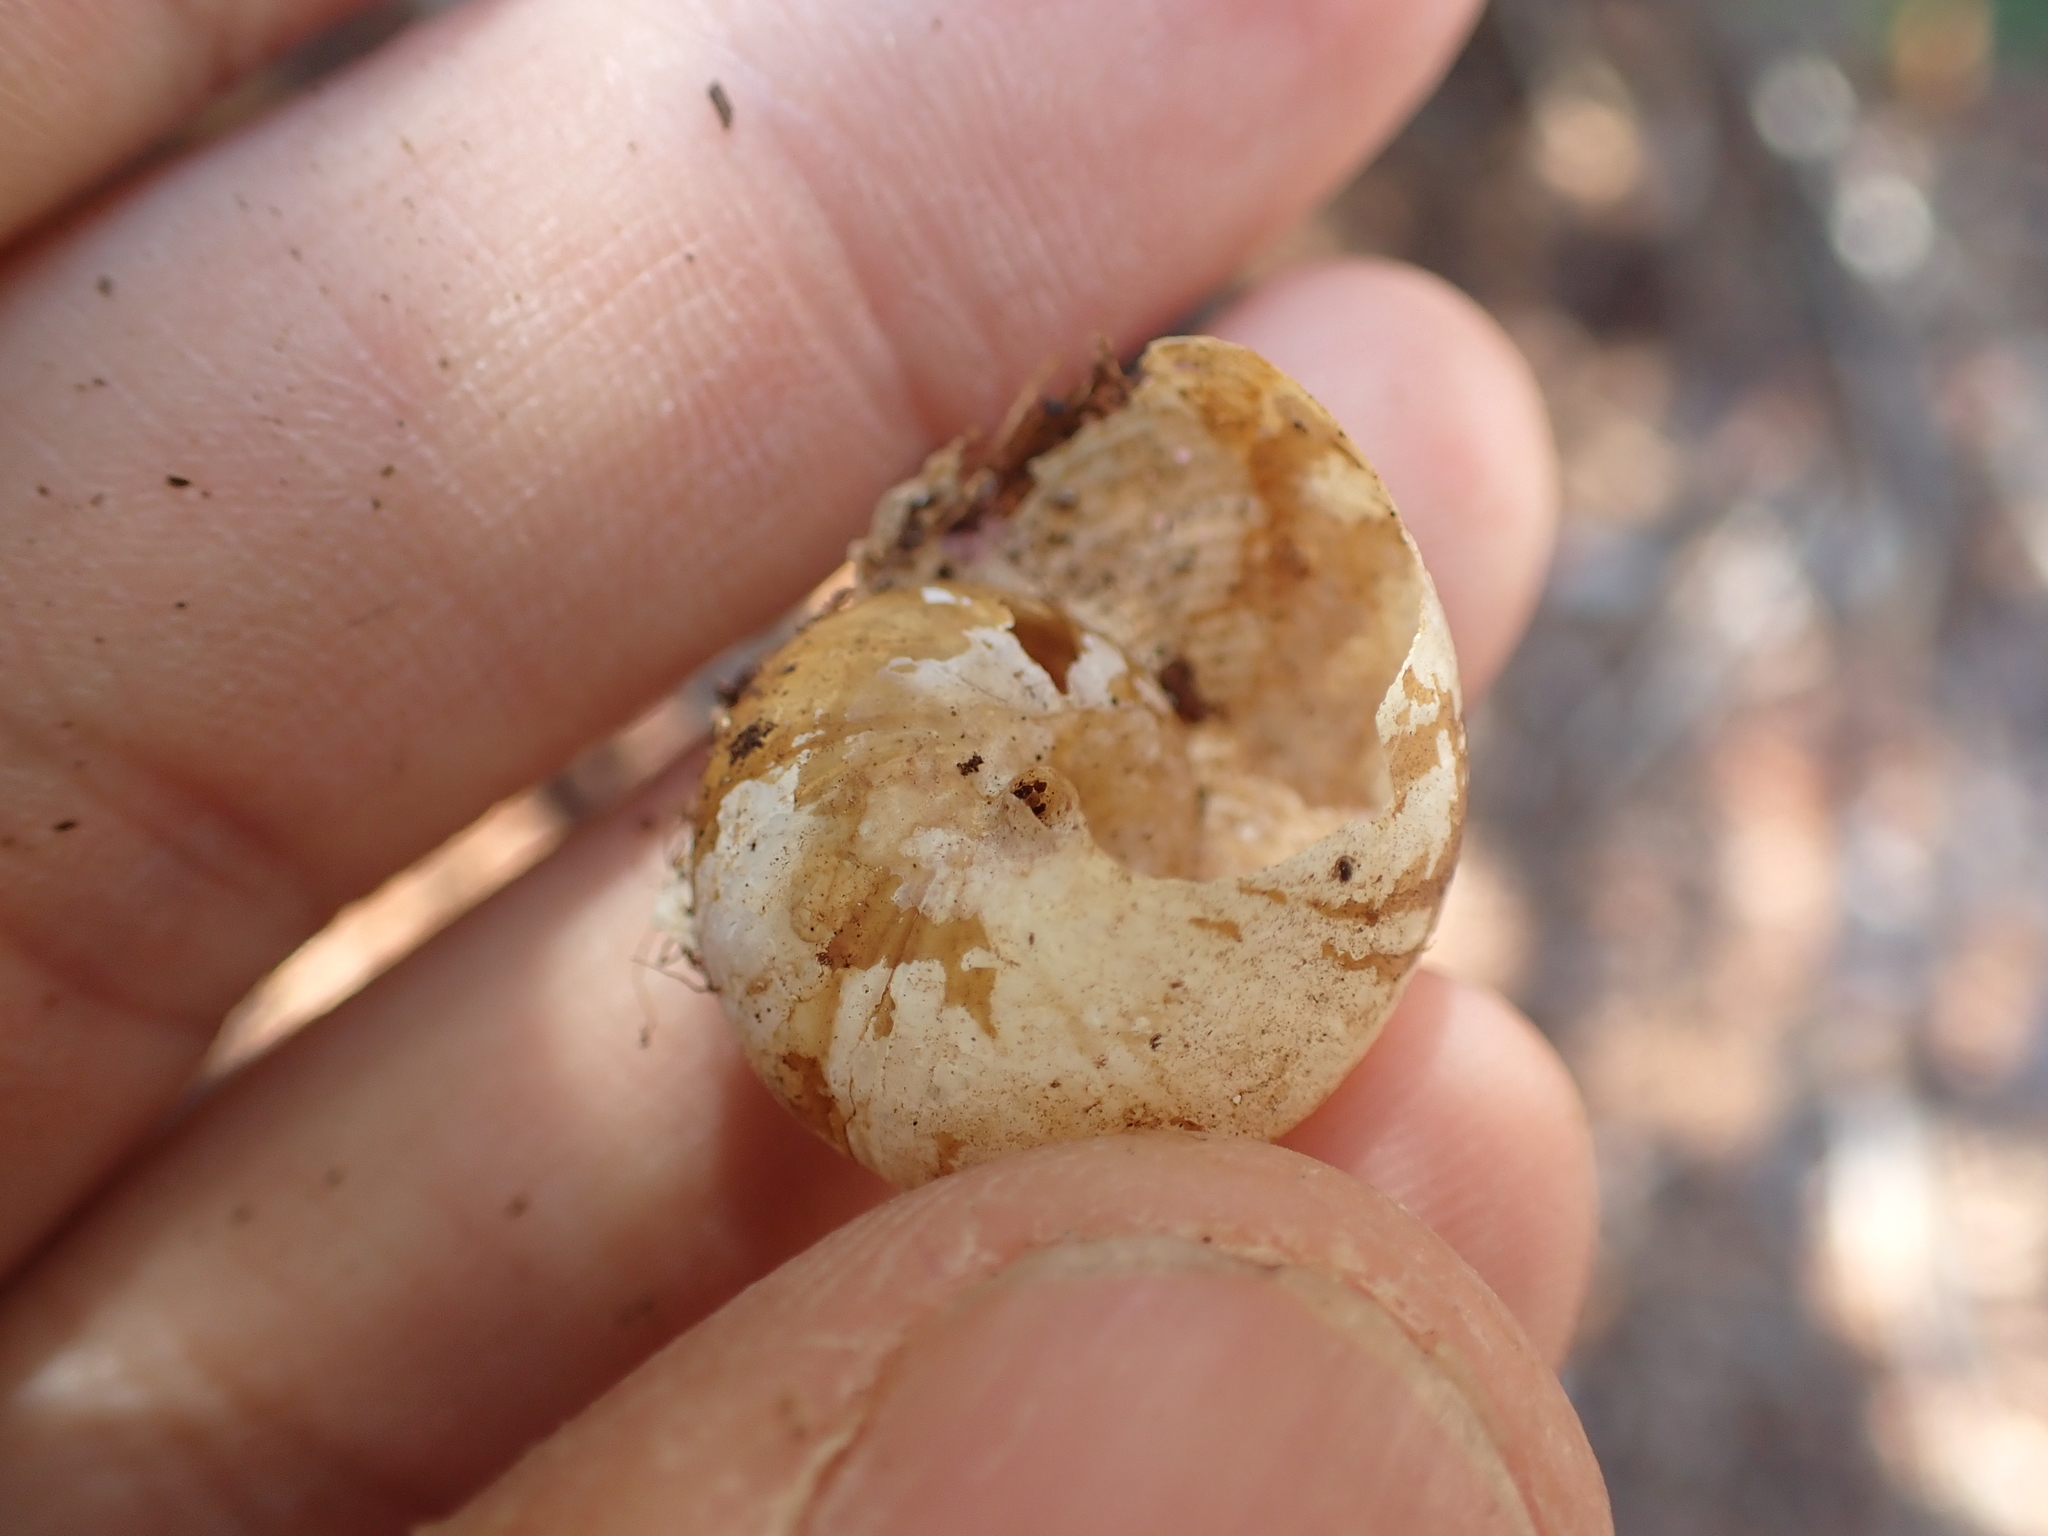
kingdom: Animalia
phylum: Mollusca
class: Gastropoda
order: Stylommatophora
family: Zachrysiidae
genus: Zachrysia
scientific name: Zachrysia provisoria
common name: Garden zachrysia
